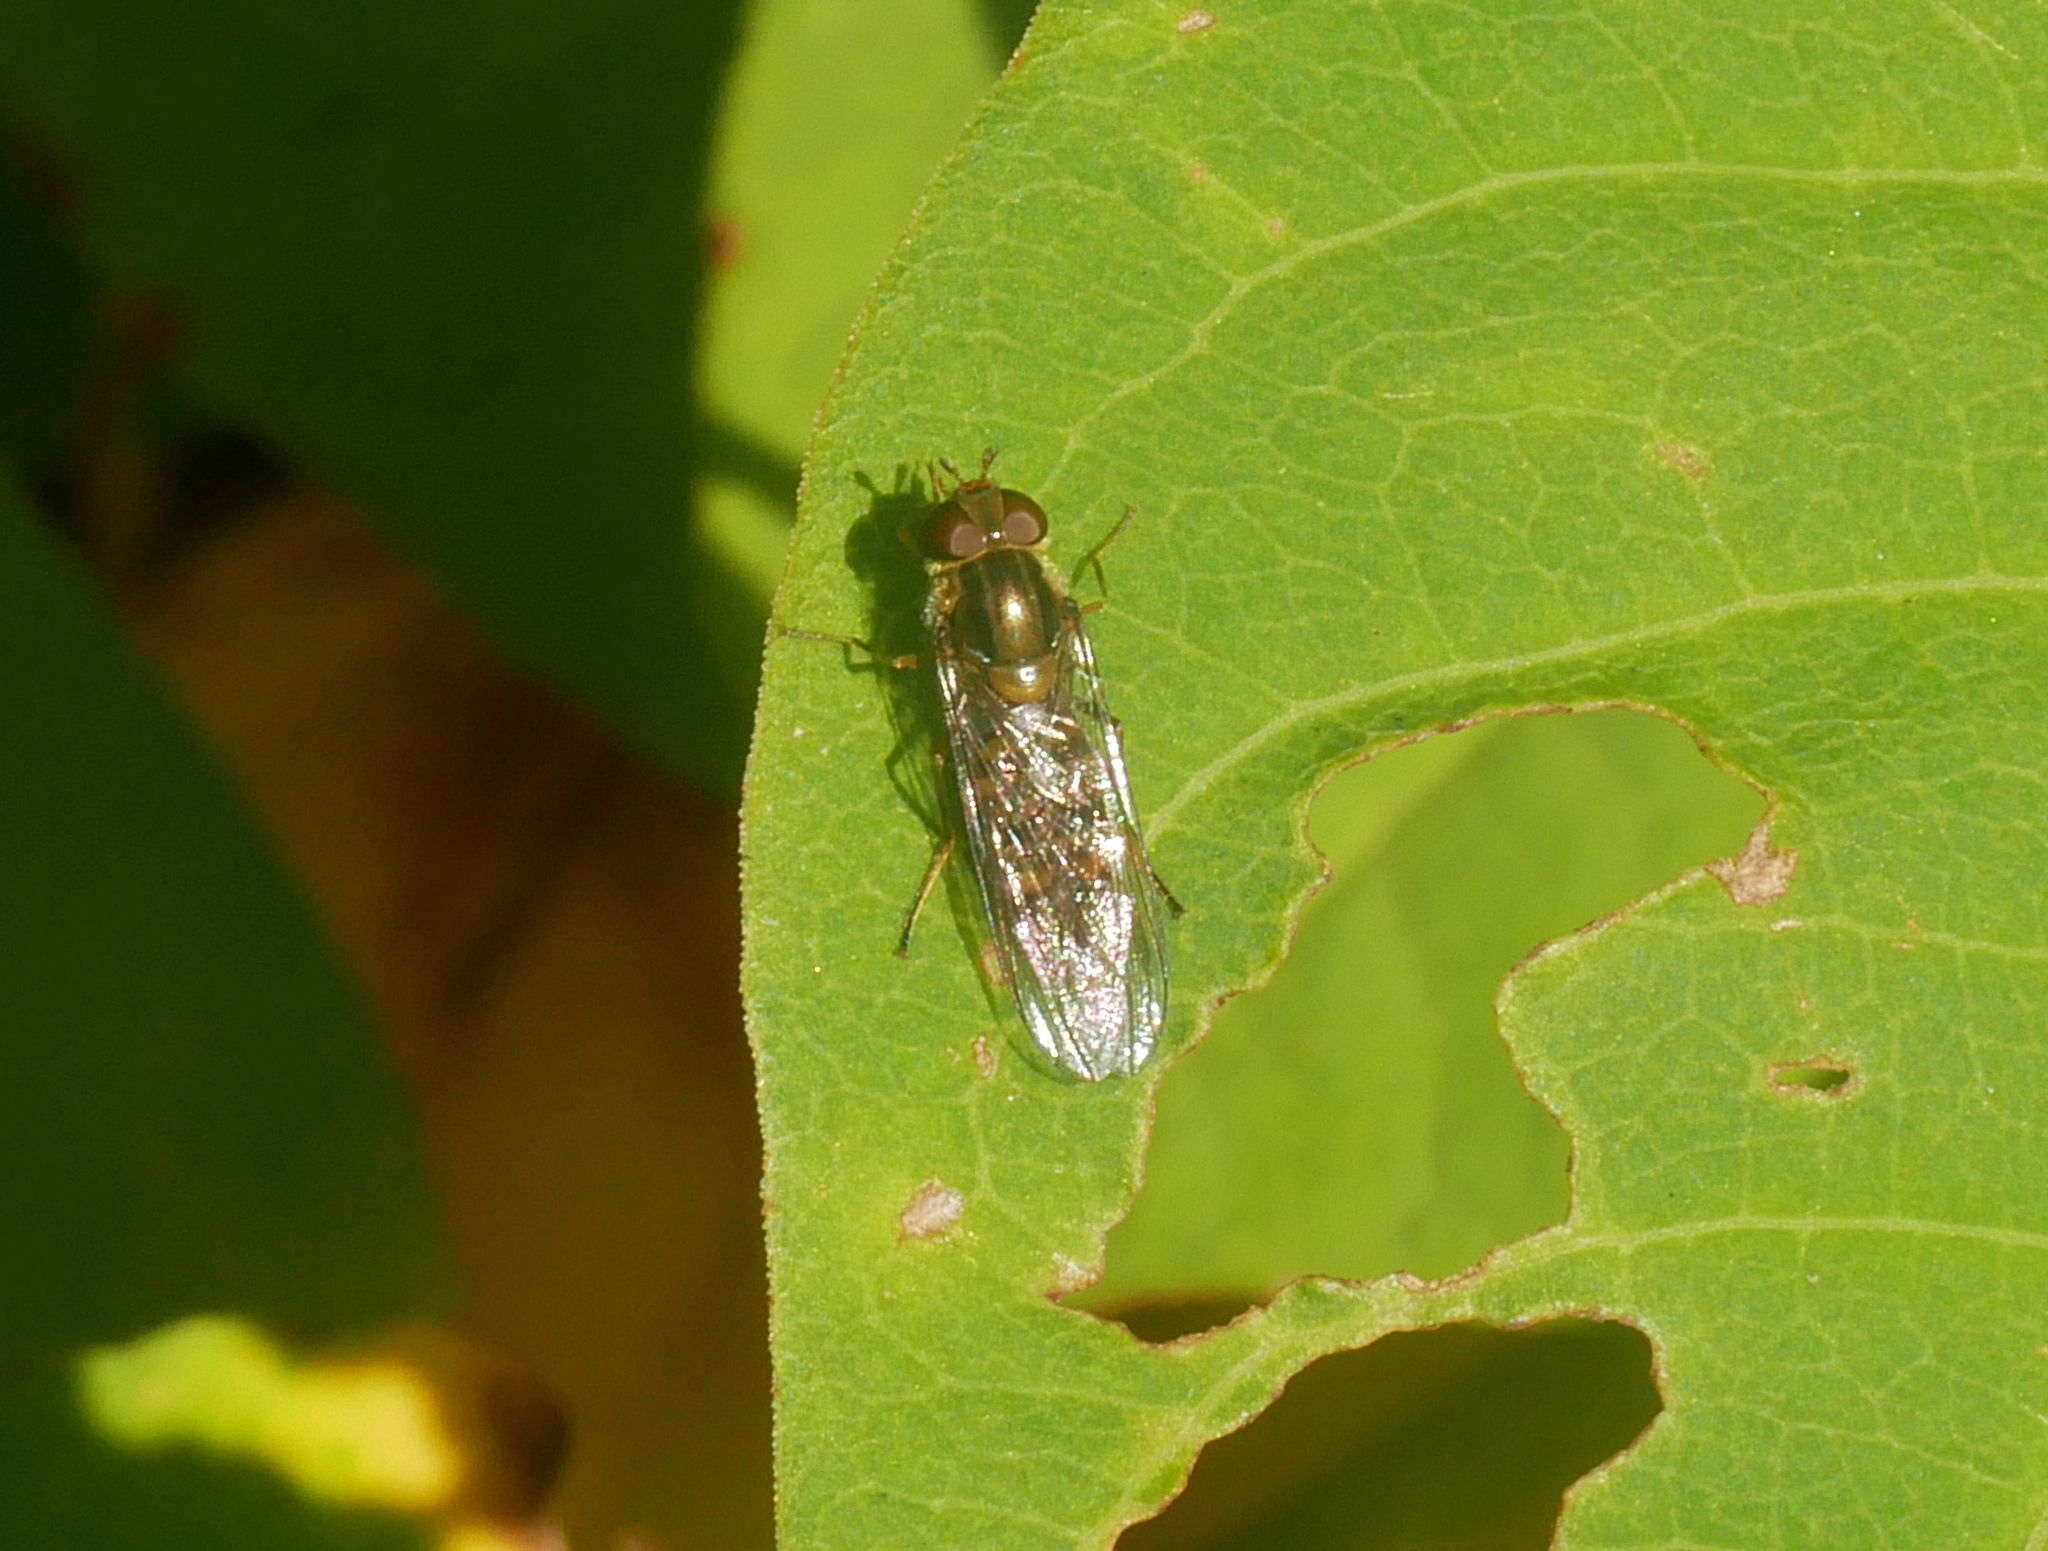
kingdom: Animalia
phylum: Arthropoda
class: Insecta
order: Diptera
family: Syrphidae
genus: Episyrphus
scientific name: Episyrphus balteatus
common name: Marmalade hoverfly
